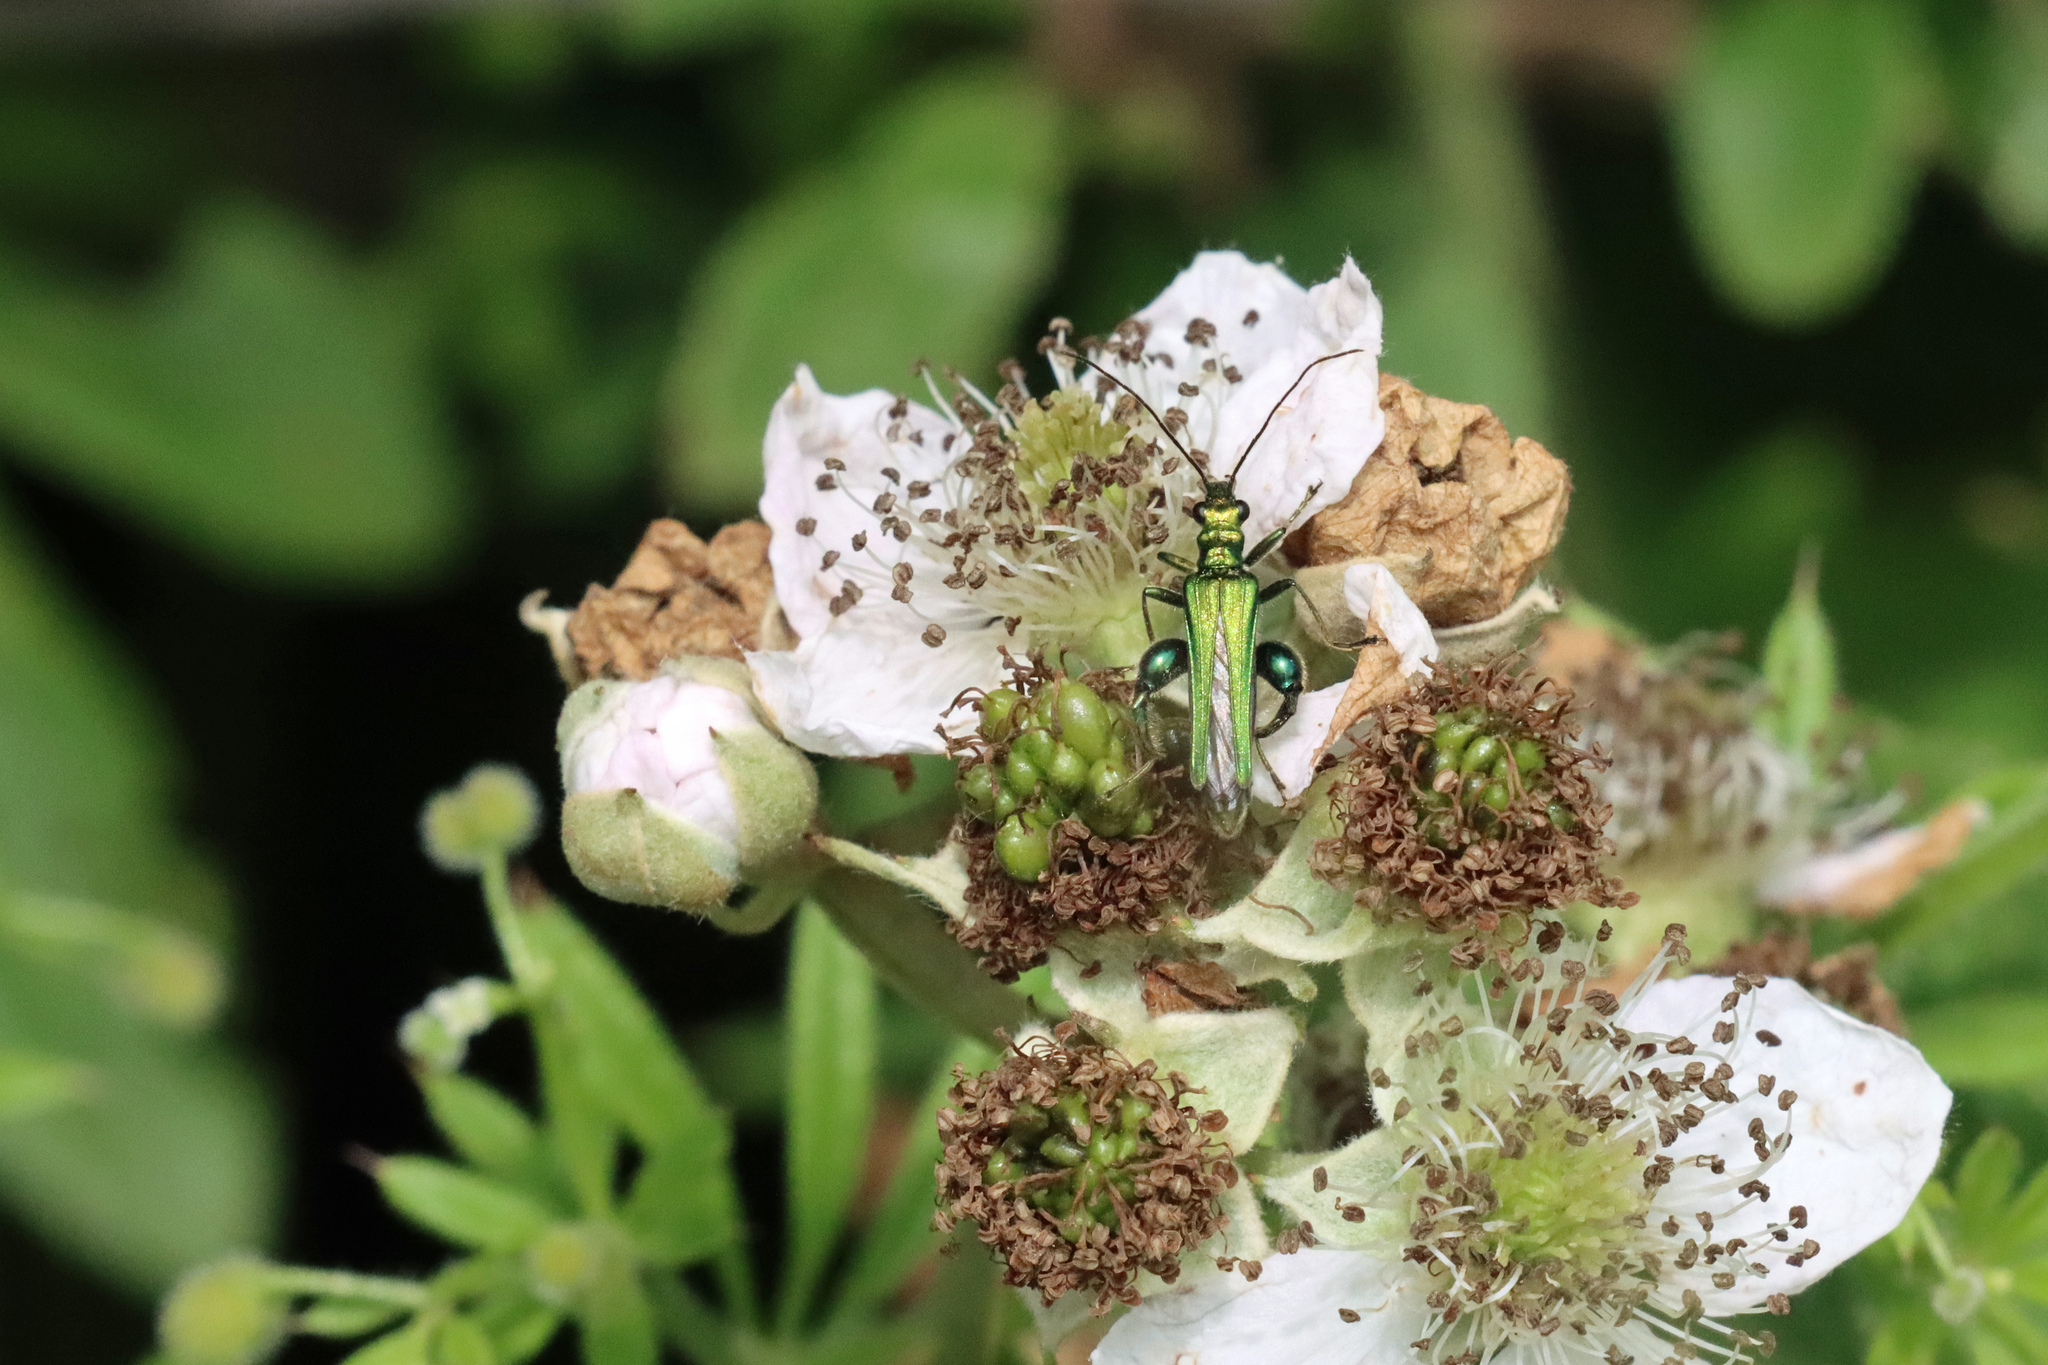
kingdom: Animalia
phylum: Arthropoda
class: Insecta
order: Coleoptera
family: Oedemeridae
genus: Oedemera
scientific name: Oedemera nobilis
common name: Swollen-thighed beetle
